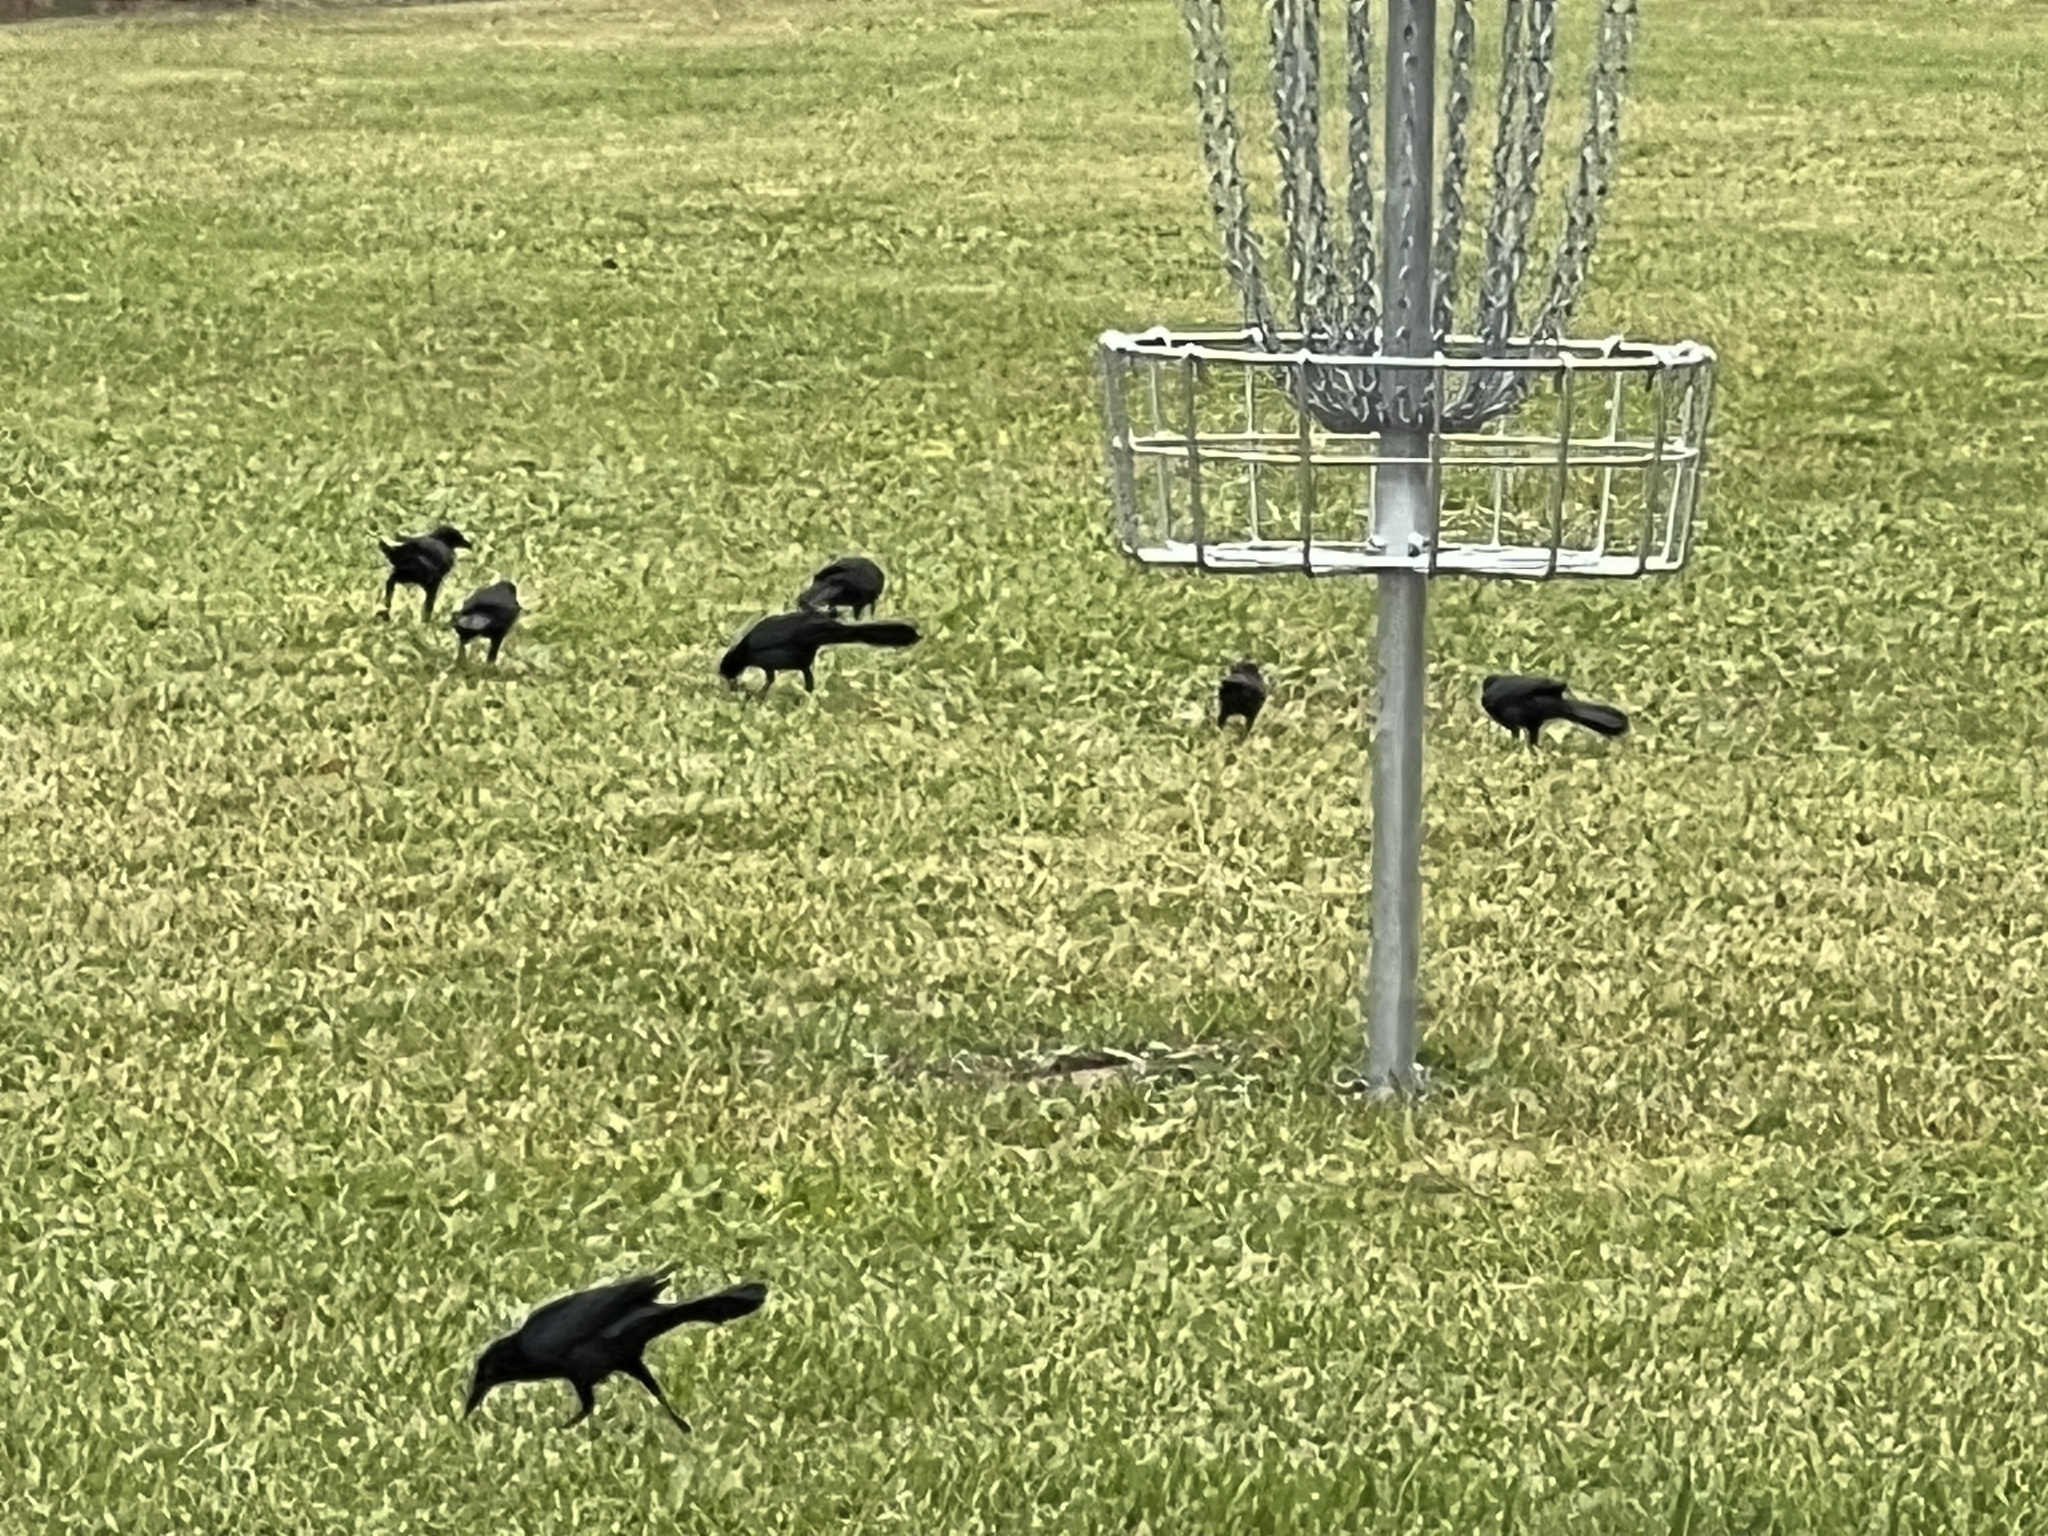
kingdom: Animalia
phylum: Chordata
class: Aves
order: Passeriformes
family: Icteridae
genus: Quiscalus
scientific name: Quiscalus mexicanus
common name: Great-tailed grackle
